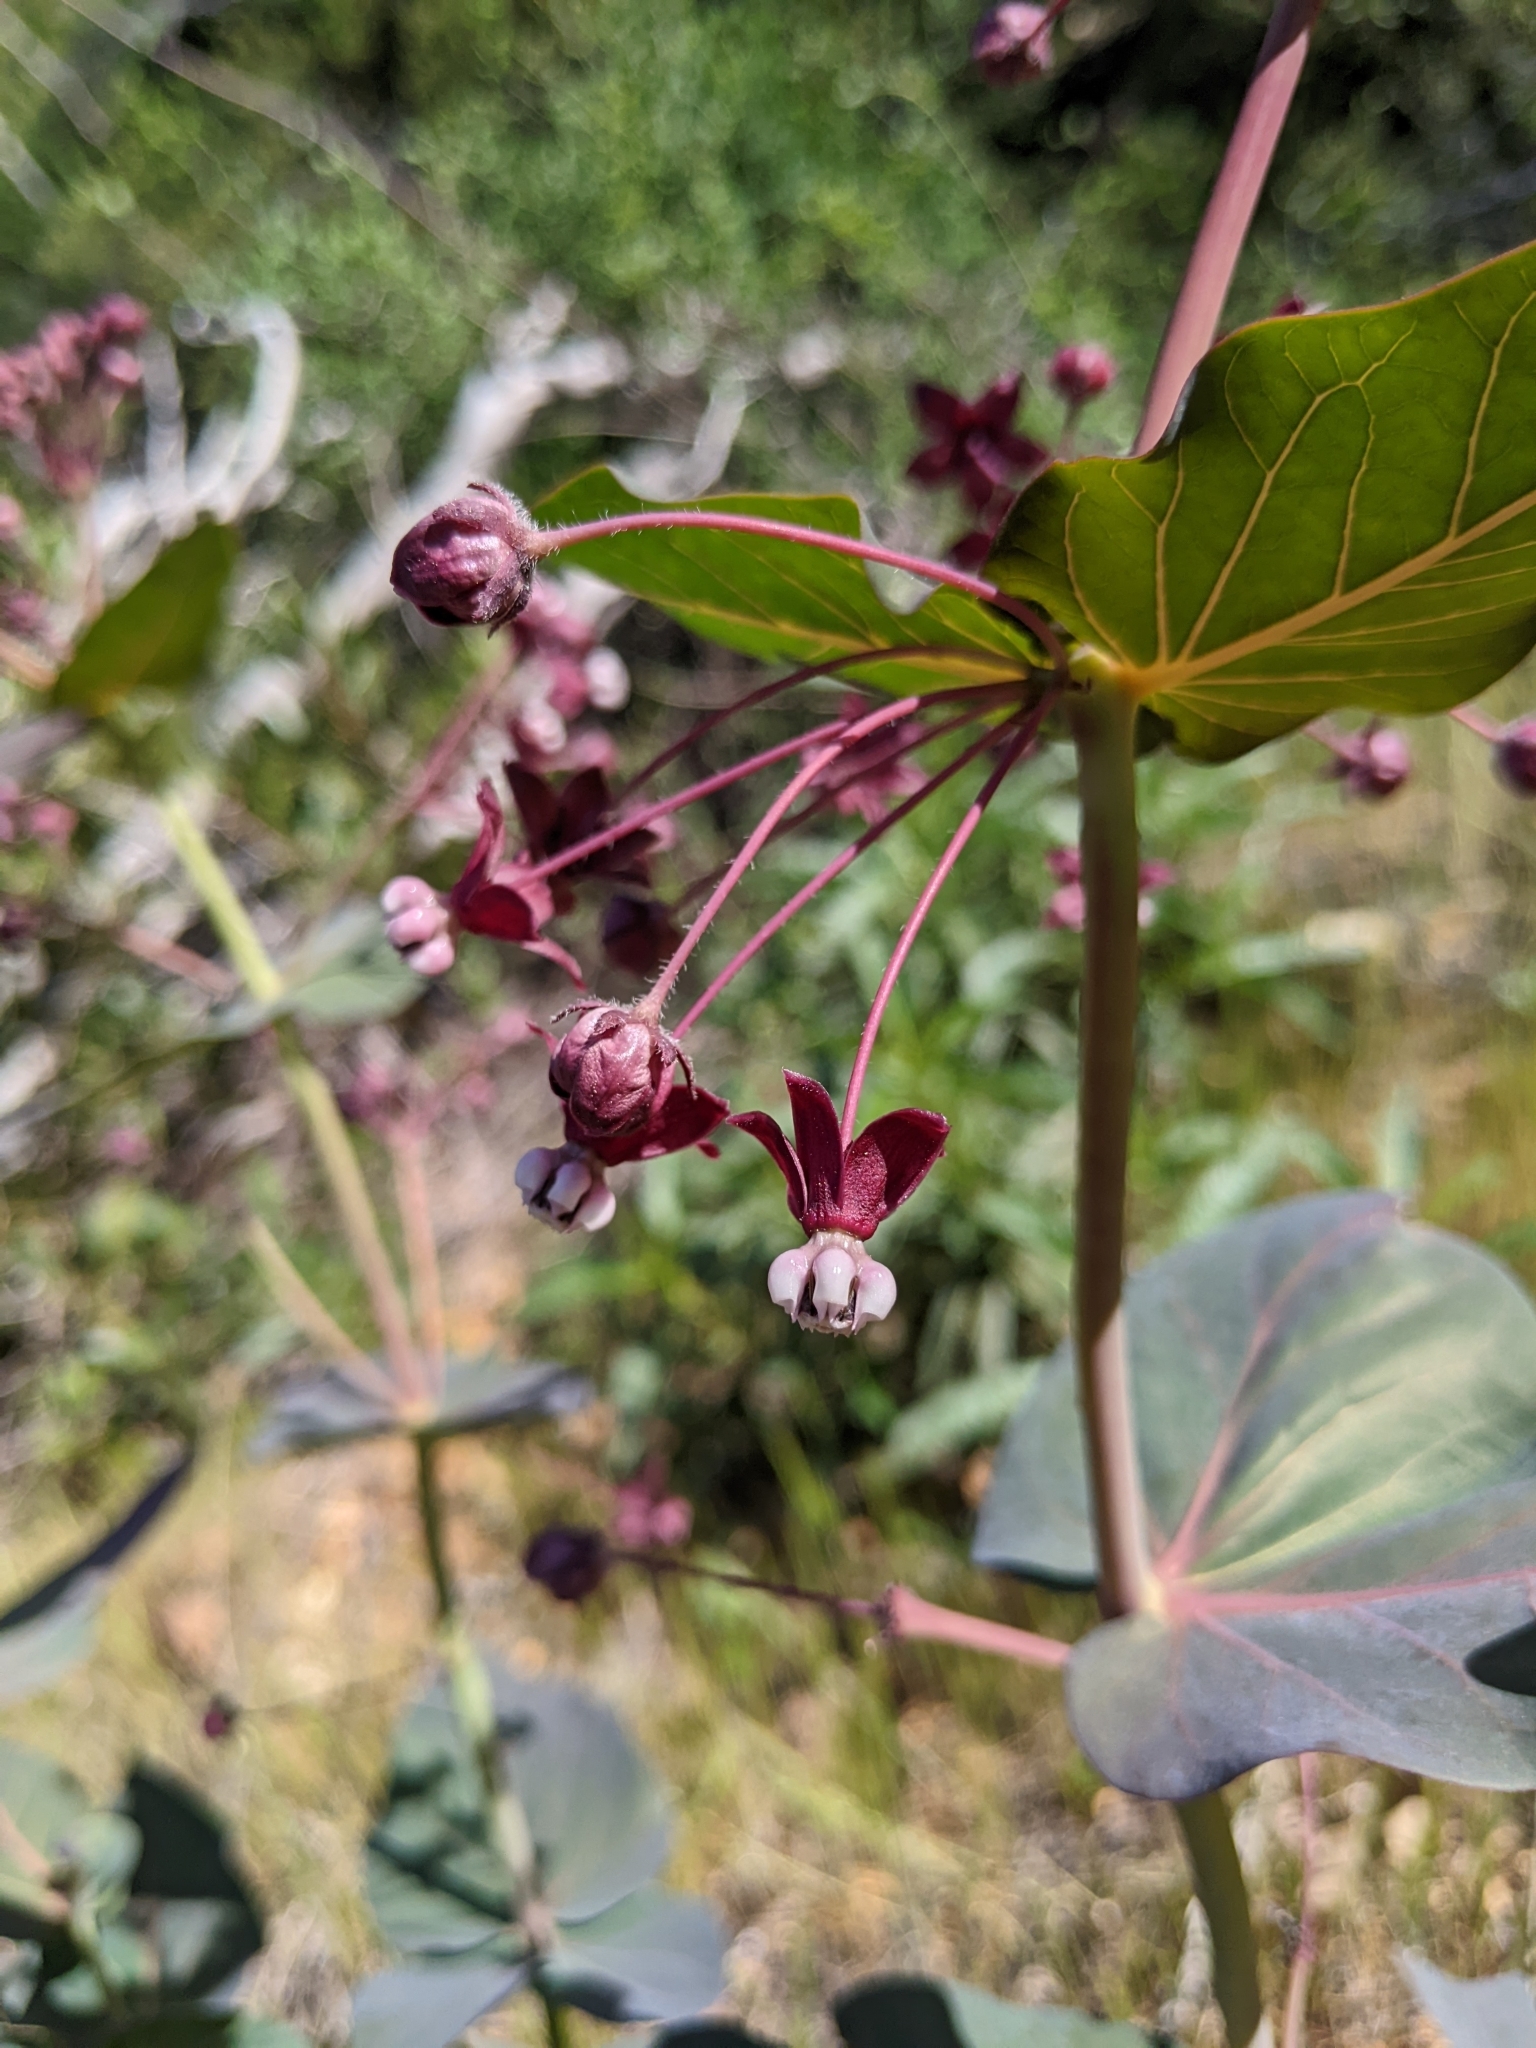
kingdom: Plantae
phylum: Tracheophyta
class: Magnoliopsida
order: Gentianales
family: Apocynaceae
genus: Asclepias
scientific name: Asclepias cordifolia
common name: Purple milkweed
